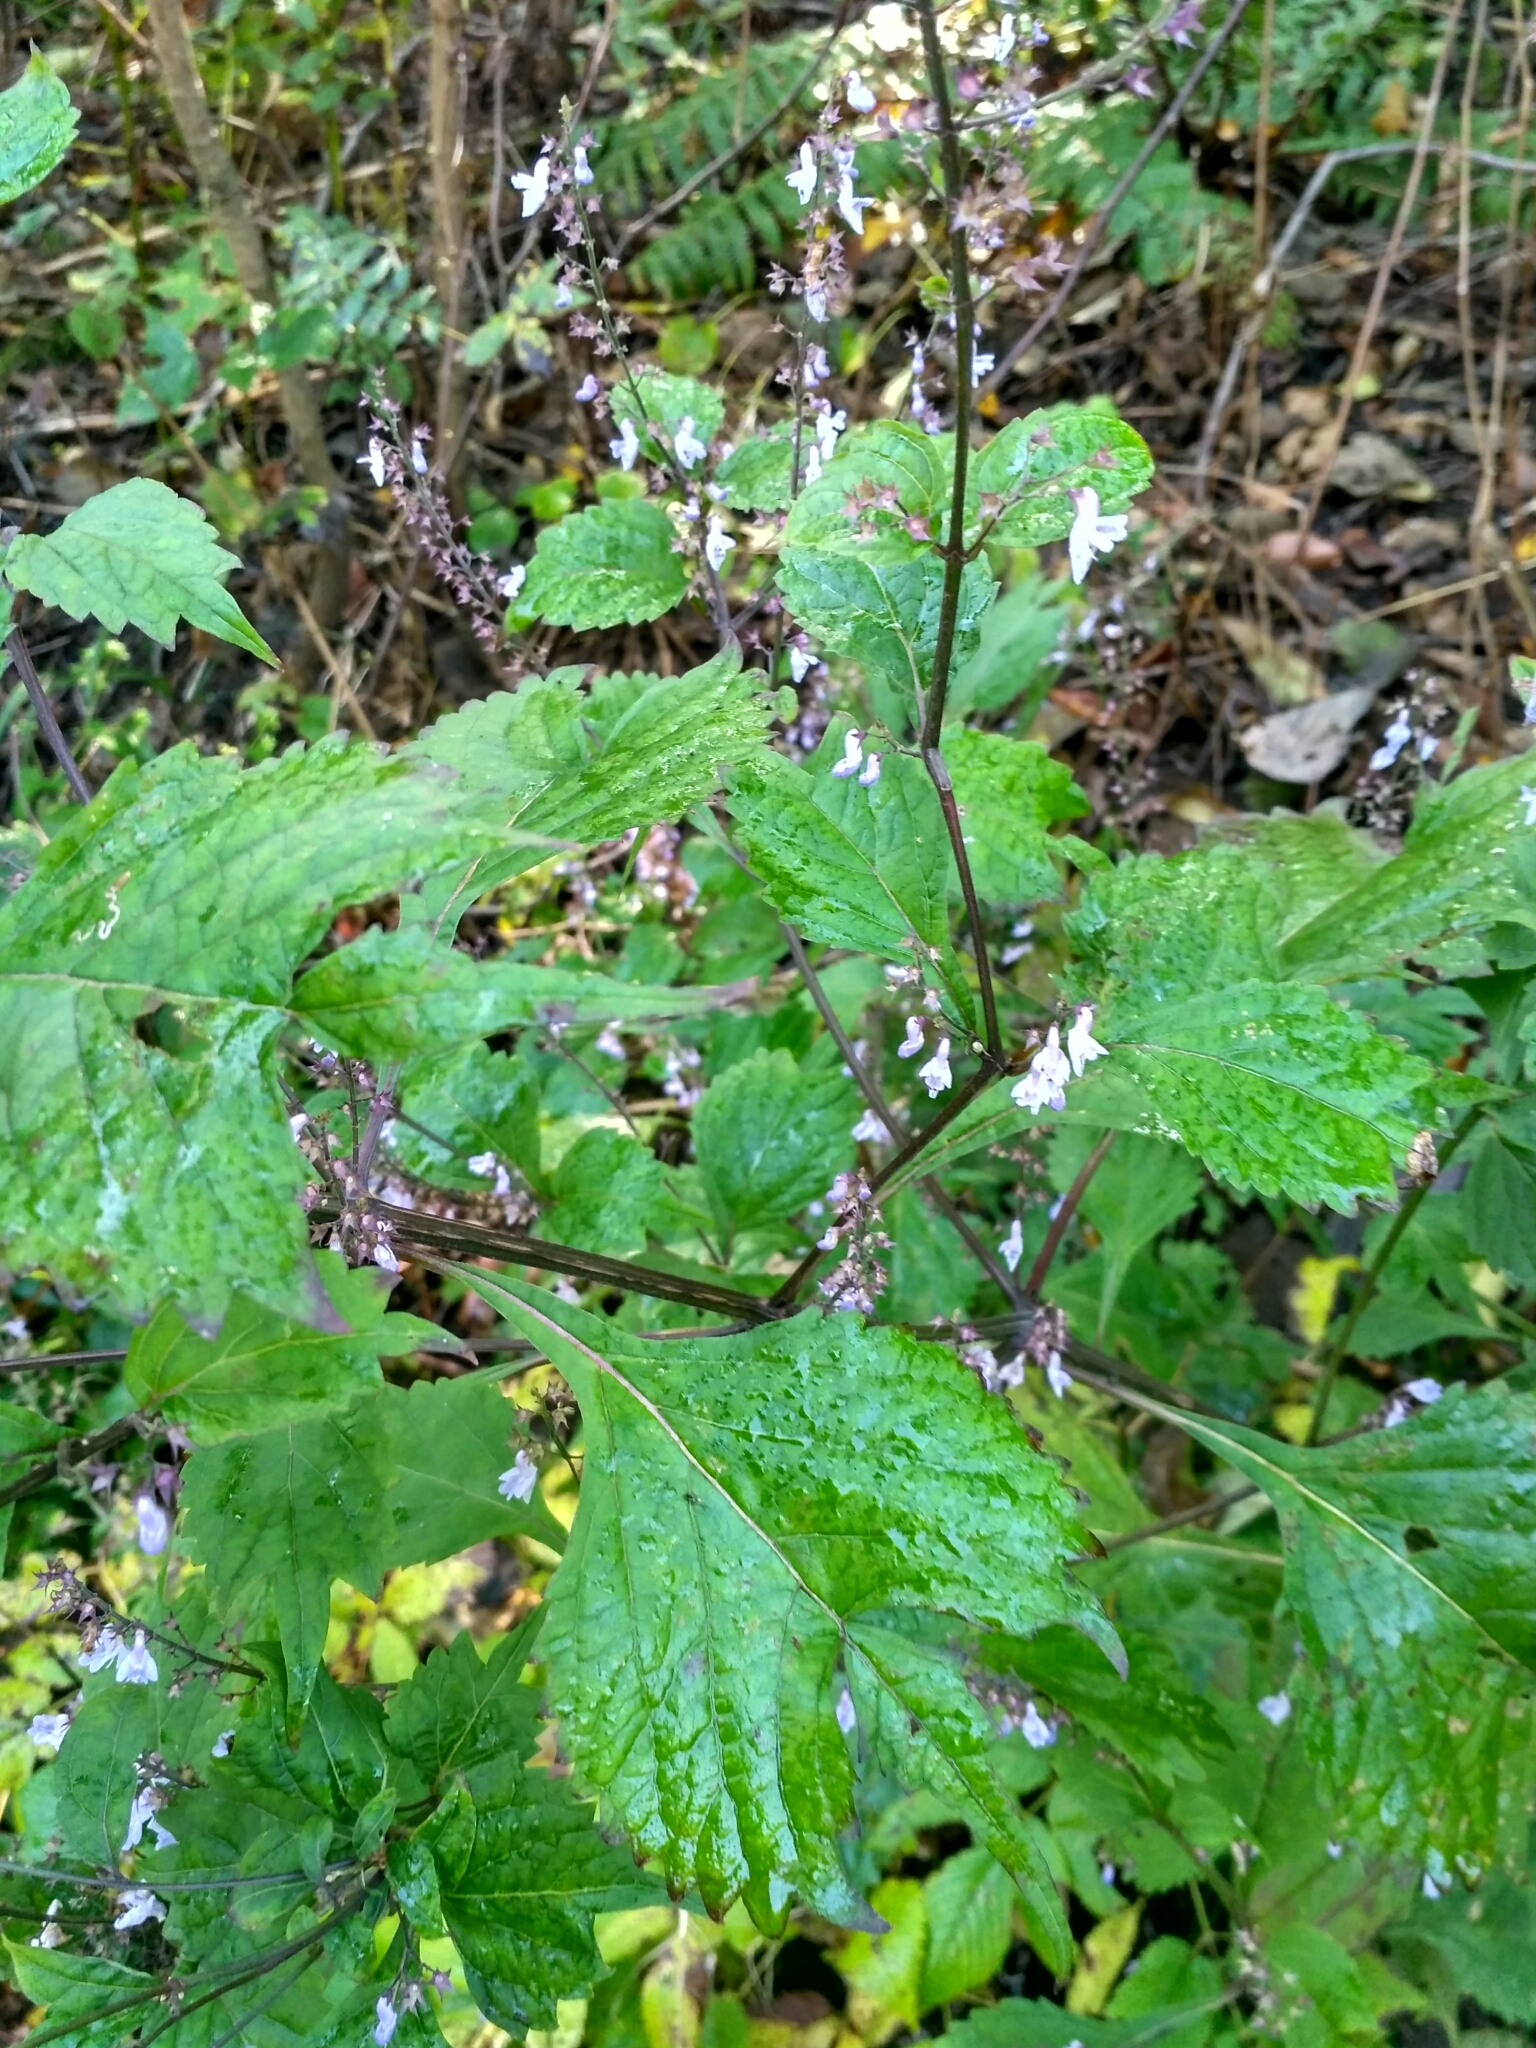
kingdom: Plantae
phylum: Tracheophyta
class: Magnoliopsida
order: Lamiales
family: Lamiaceae
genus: Isodon
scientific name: Isodon excisus
